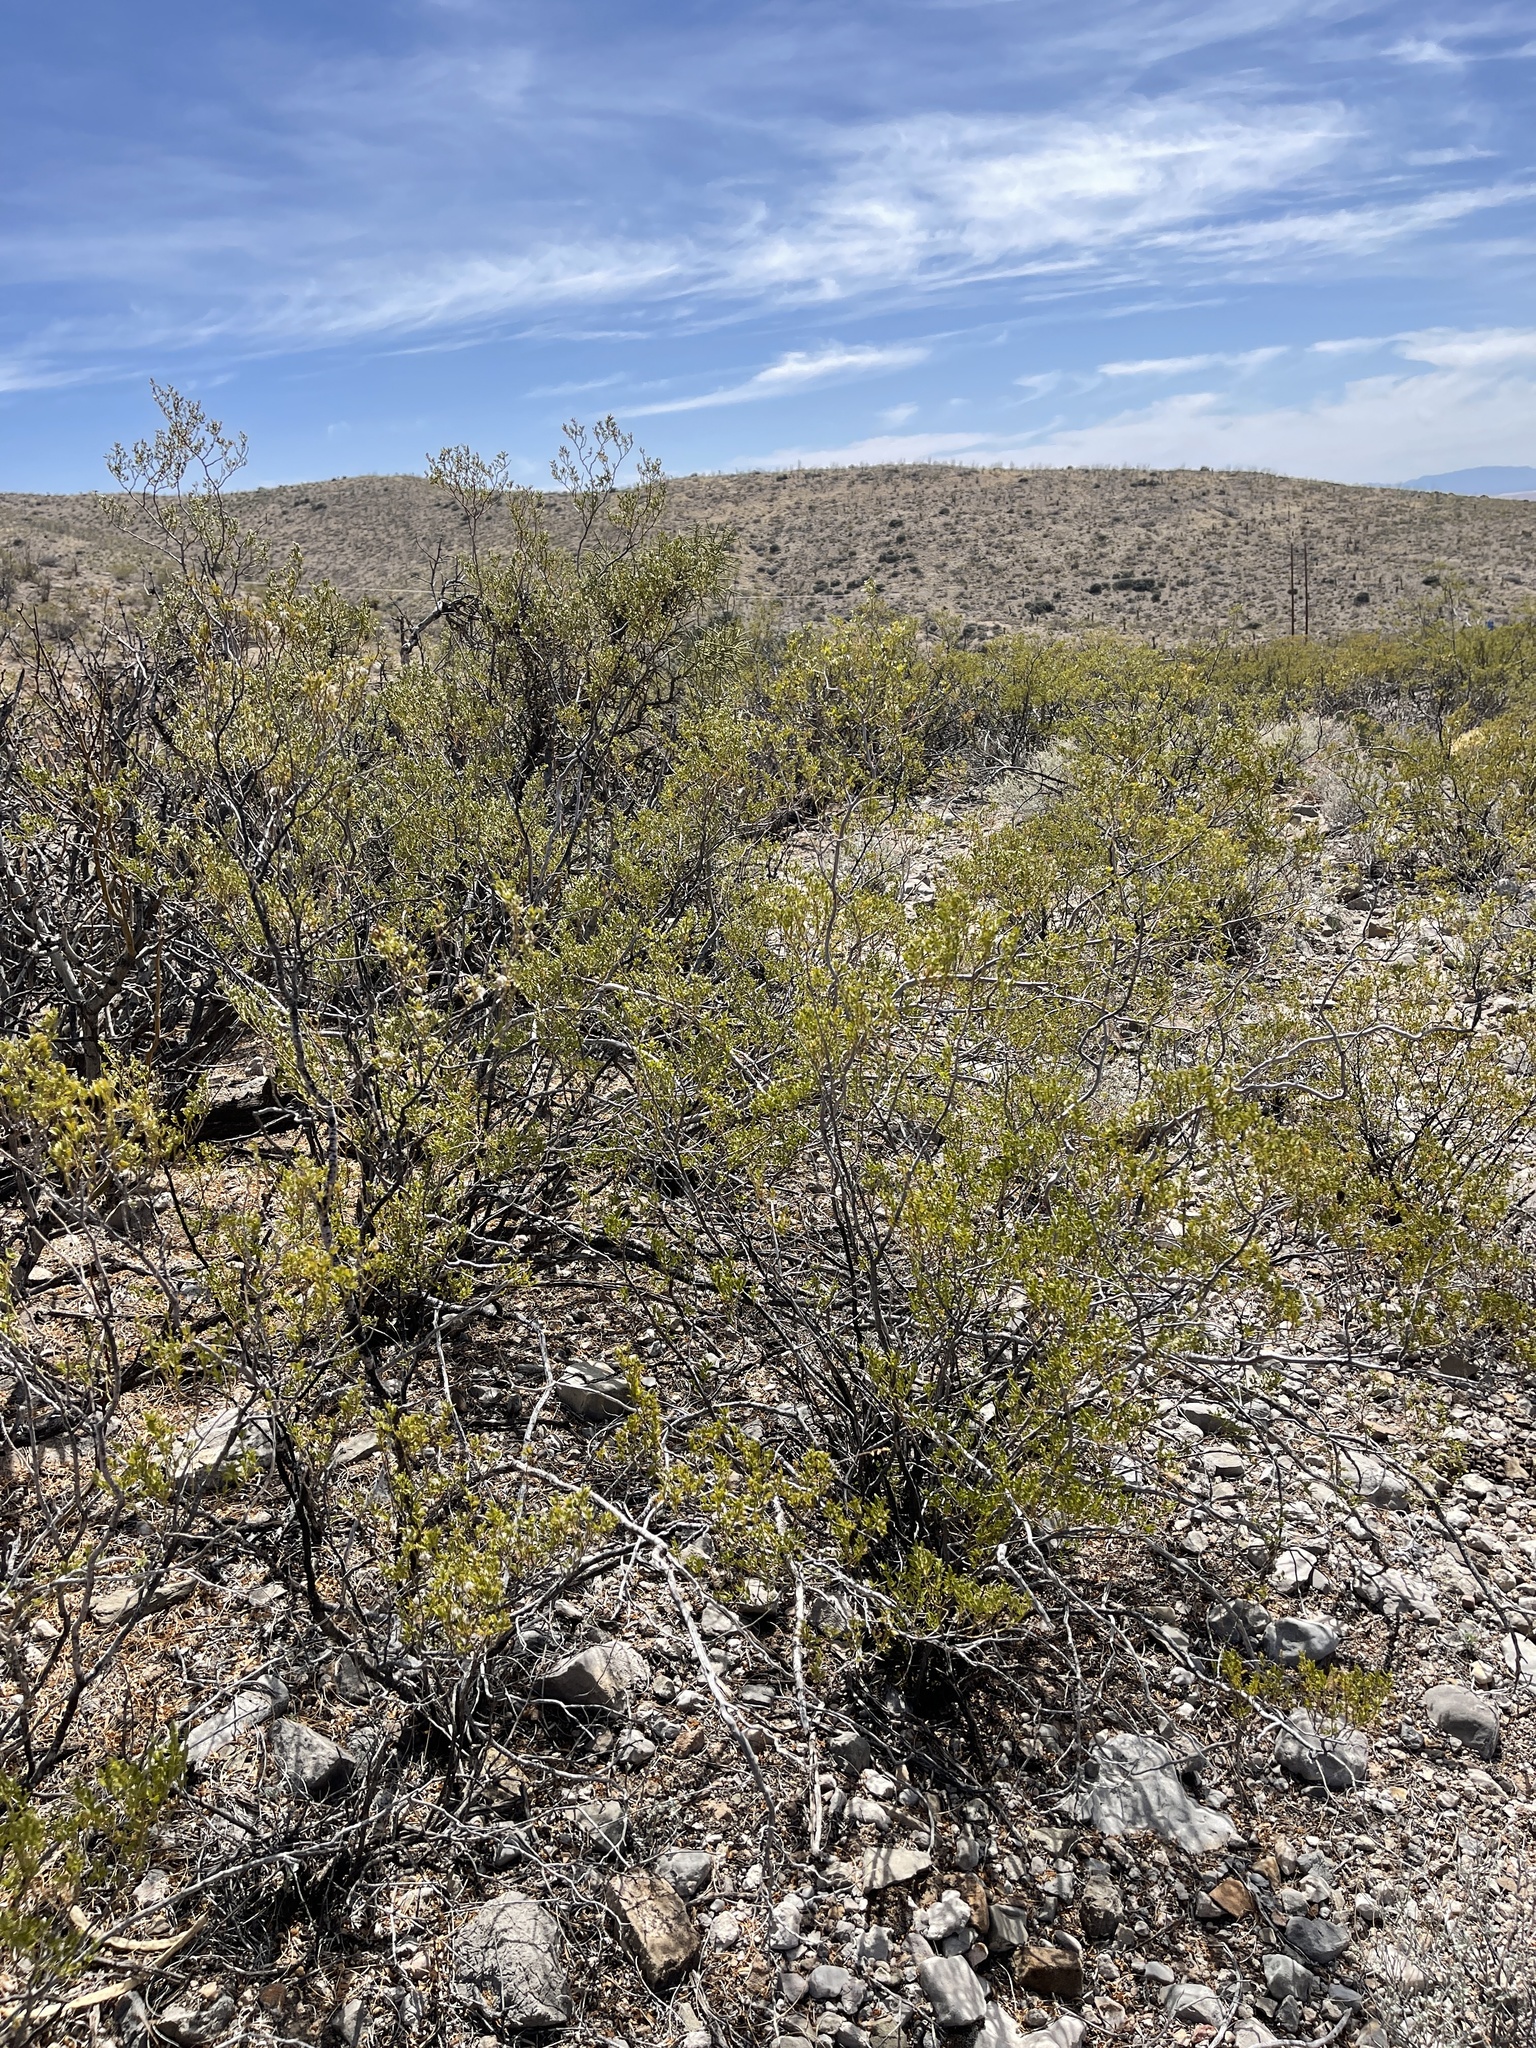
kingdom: Plantae
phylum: Tracheophyta
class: Magnoliopsida
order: Zygophyllales
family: Zygophyllaceae
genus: Larrea
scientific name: Larrea tridentata
